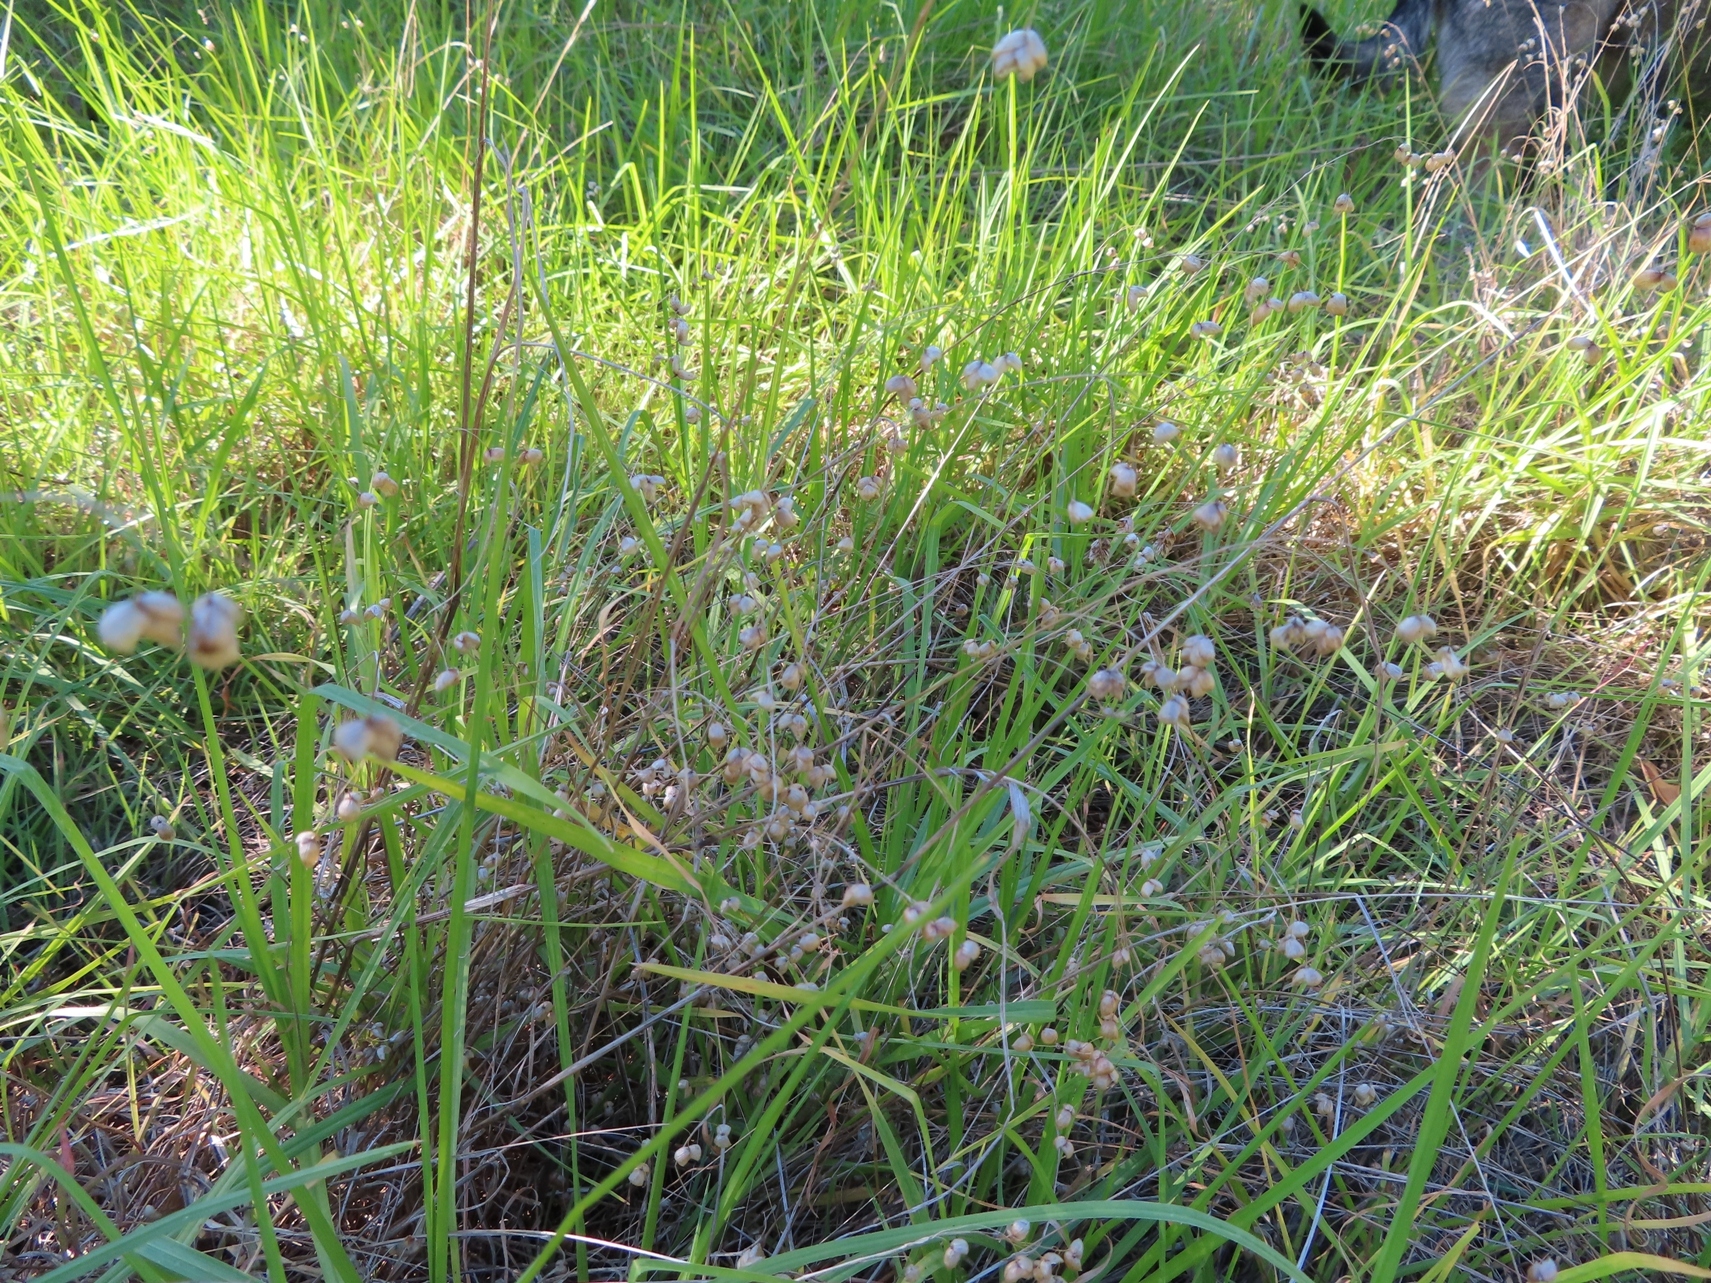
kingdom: Plantae
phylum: Tracheophyta
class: Liliopsida
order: Poales
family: Poaceae
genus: Briza
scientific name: Briza maxima
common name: Big quakinggrass
